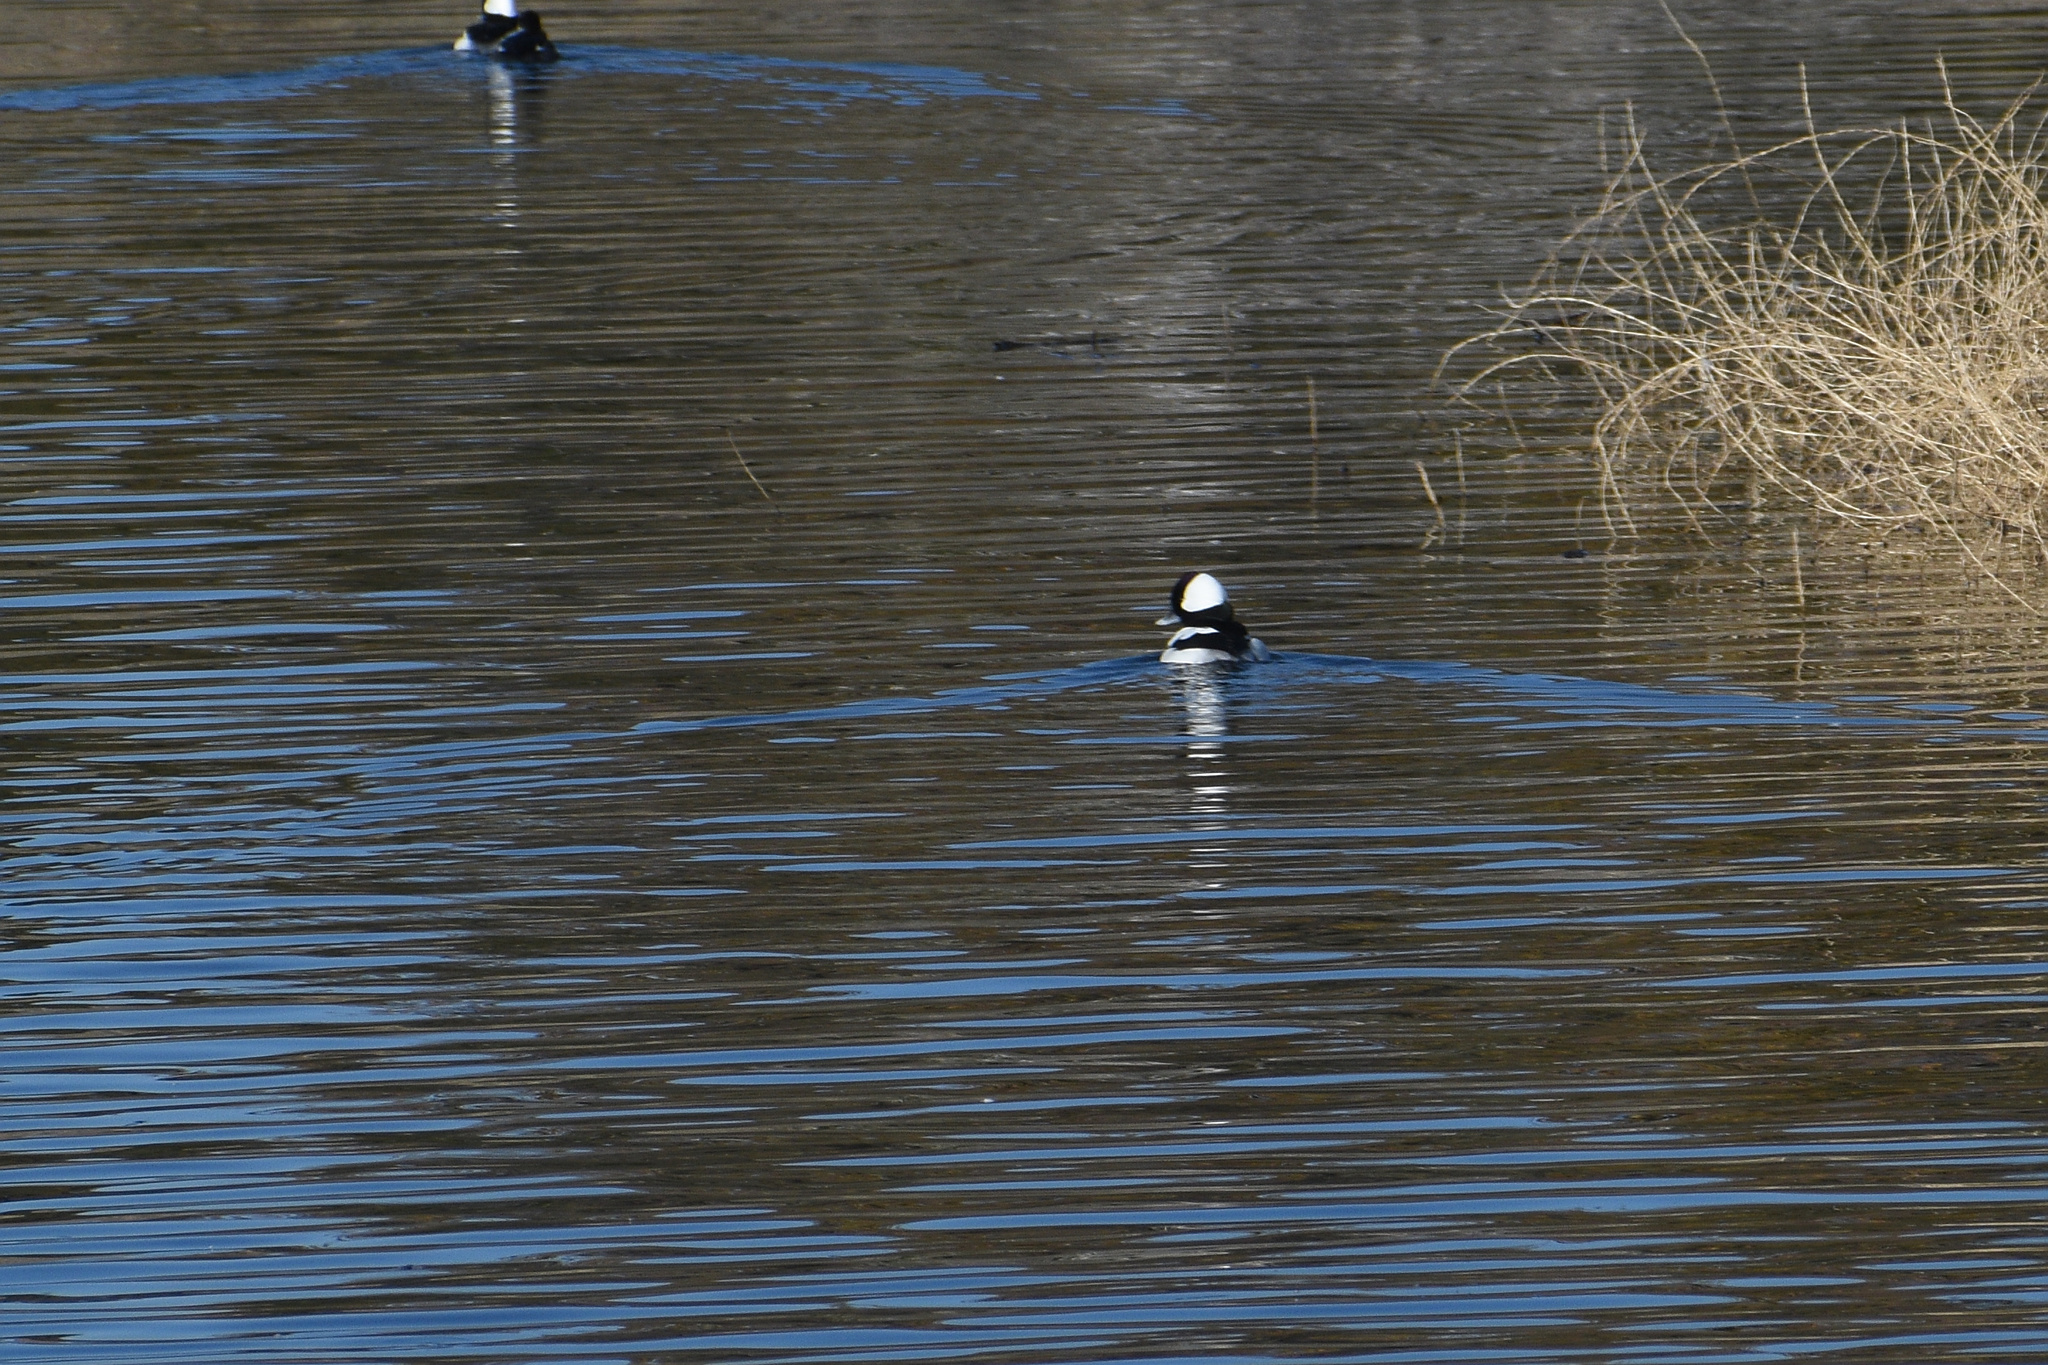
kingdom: Animalia
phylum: Chordata
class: Aves
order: Anseriformes
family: Anatidae
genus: Bucephala
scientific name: Bucephala albeola
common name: Bufflehead
